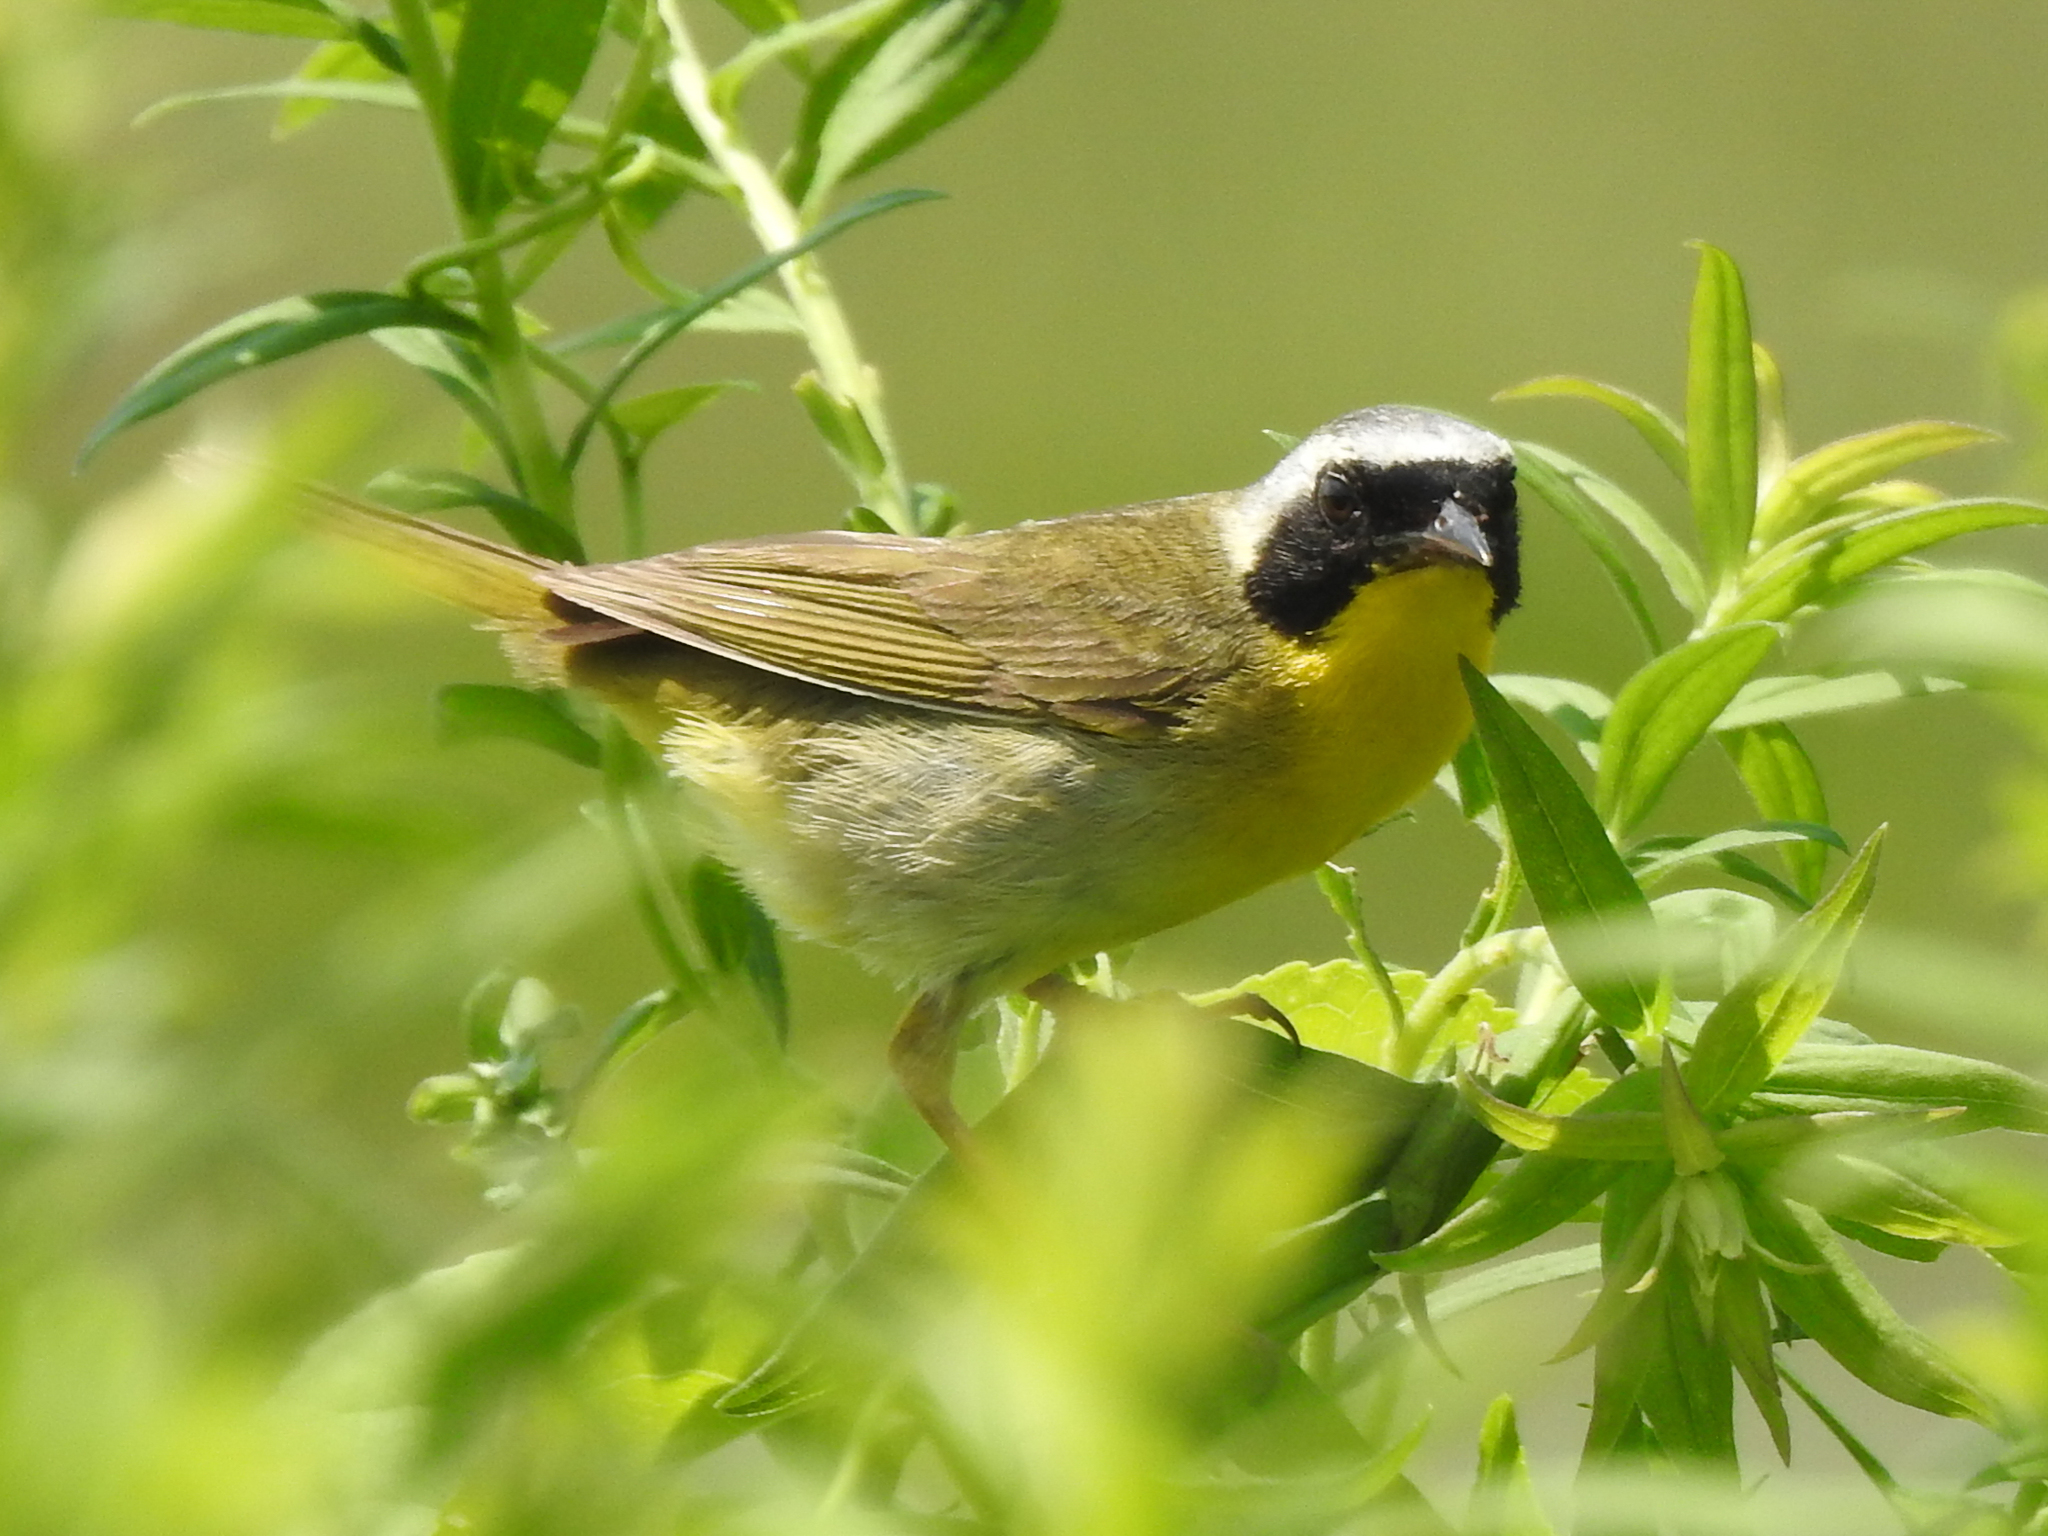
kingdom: Animalia
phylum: Chordata
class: Aves
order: Passeriformes
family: Parulidae
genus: Geothlypis
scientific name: Geothlypis trichas
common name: Common yellowthroat
